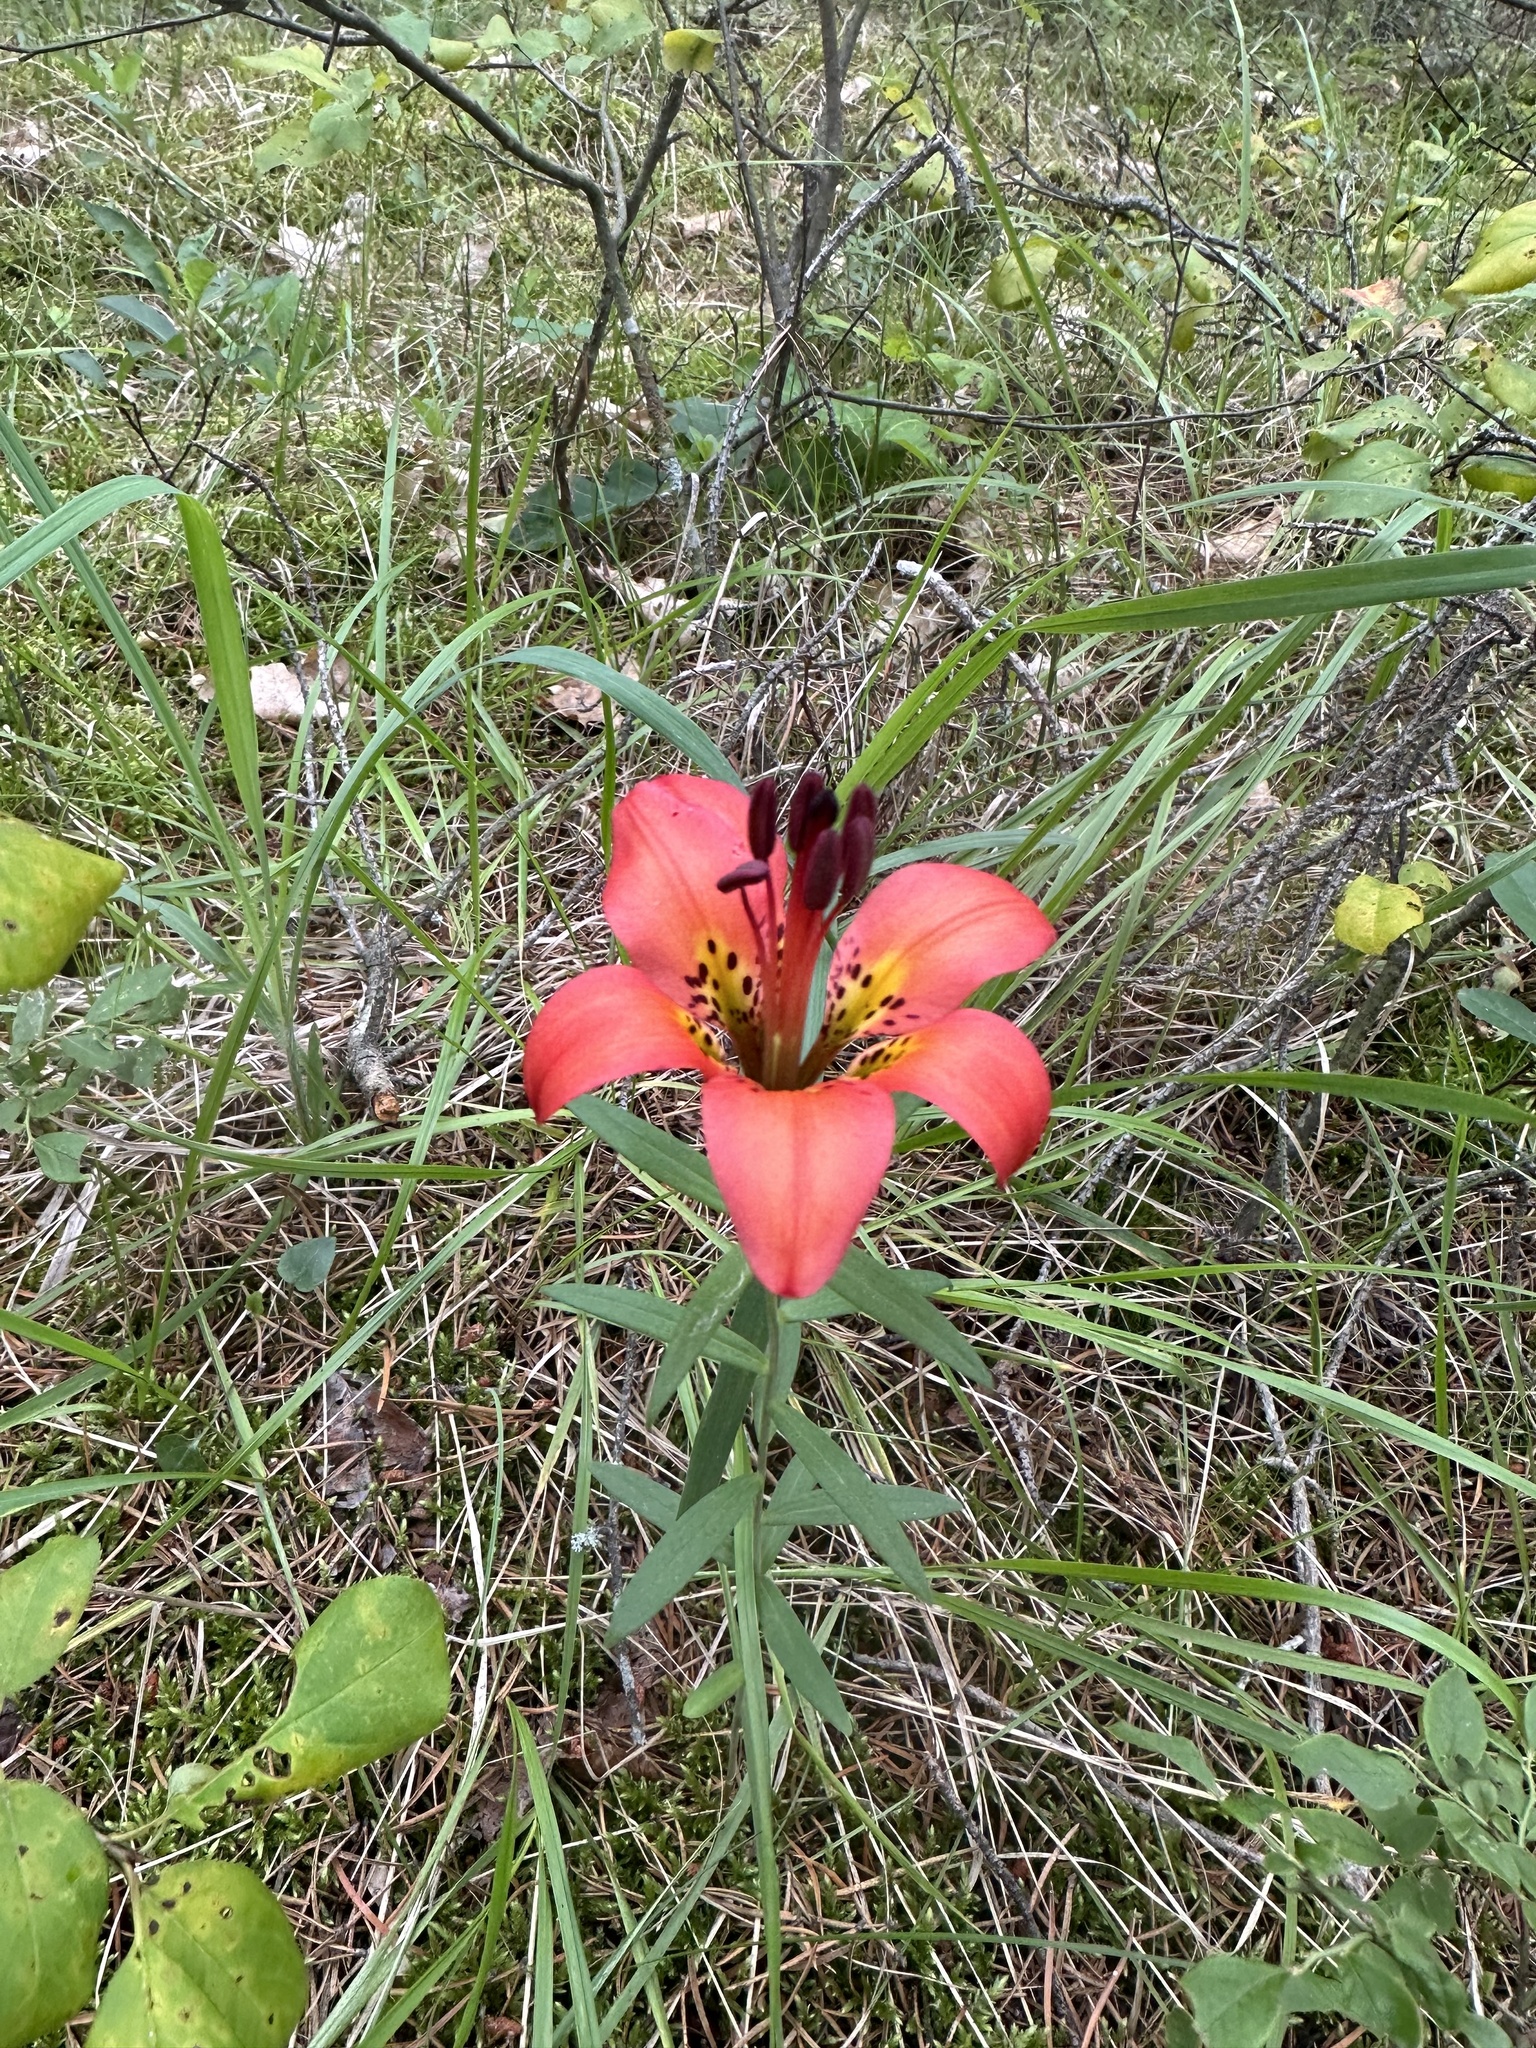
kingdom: Plantae
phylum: Tracheophyta
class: Liliopsida
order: Liliales
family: Liliaceae
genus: Lilium
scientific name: Lilium philadelphicum
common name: Red lily
